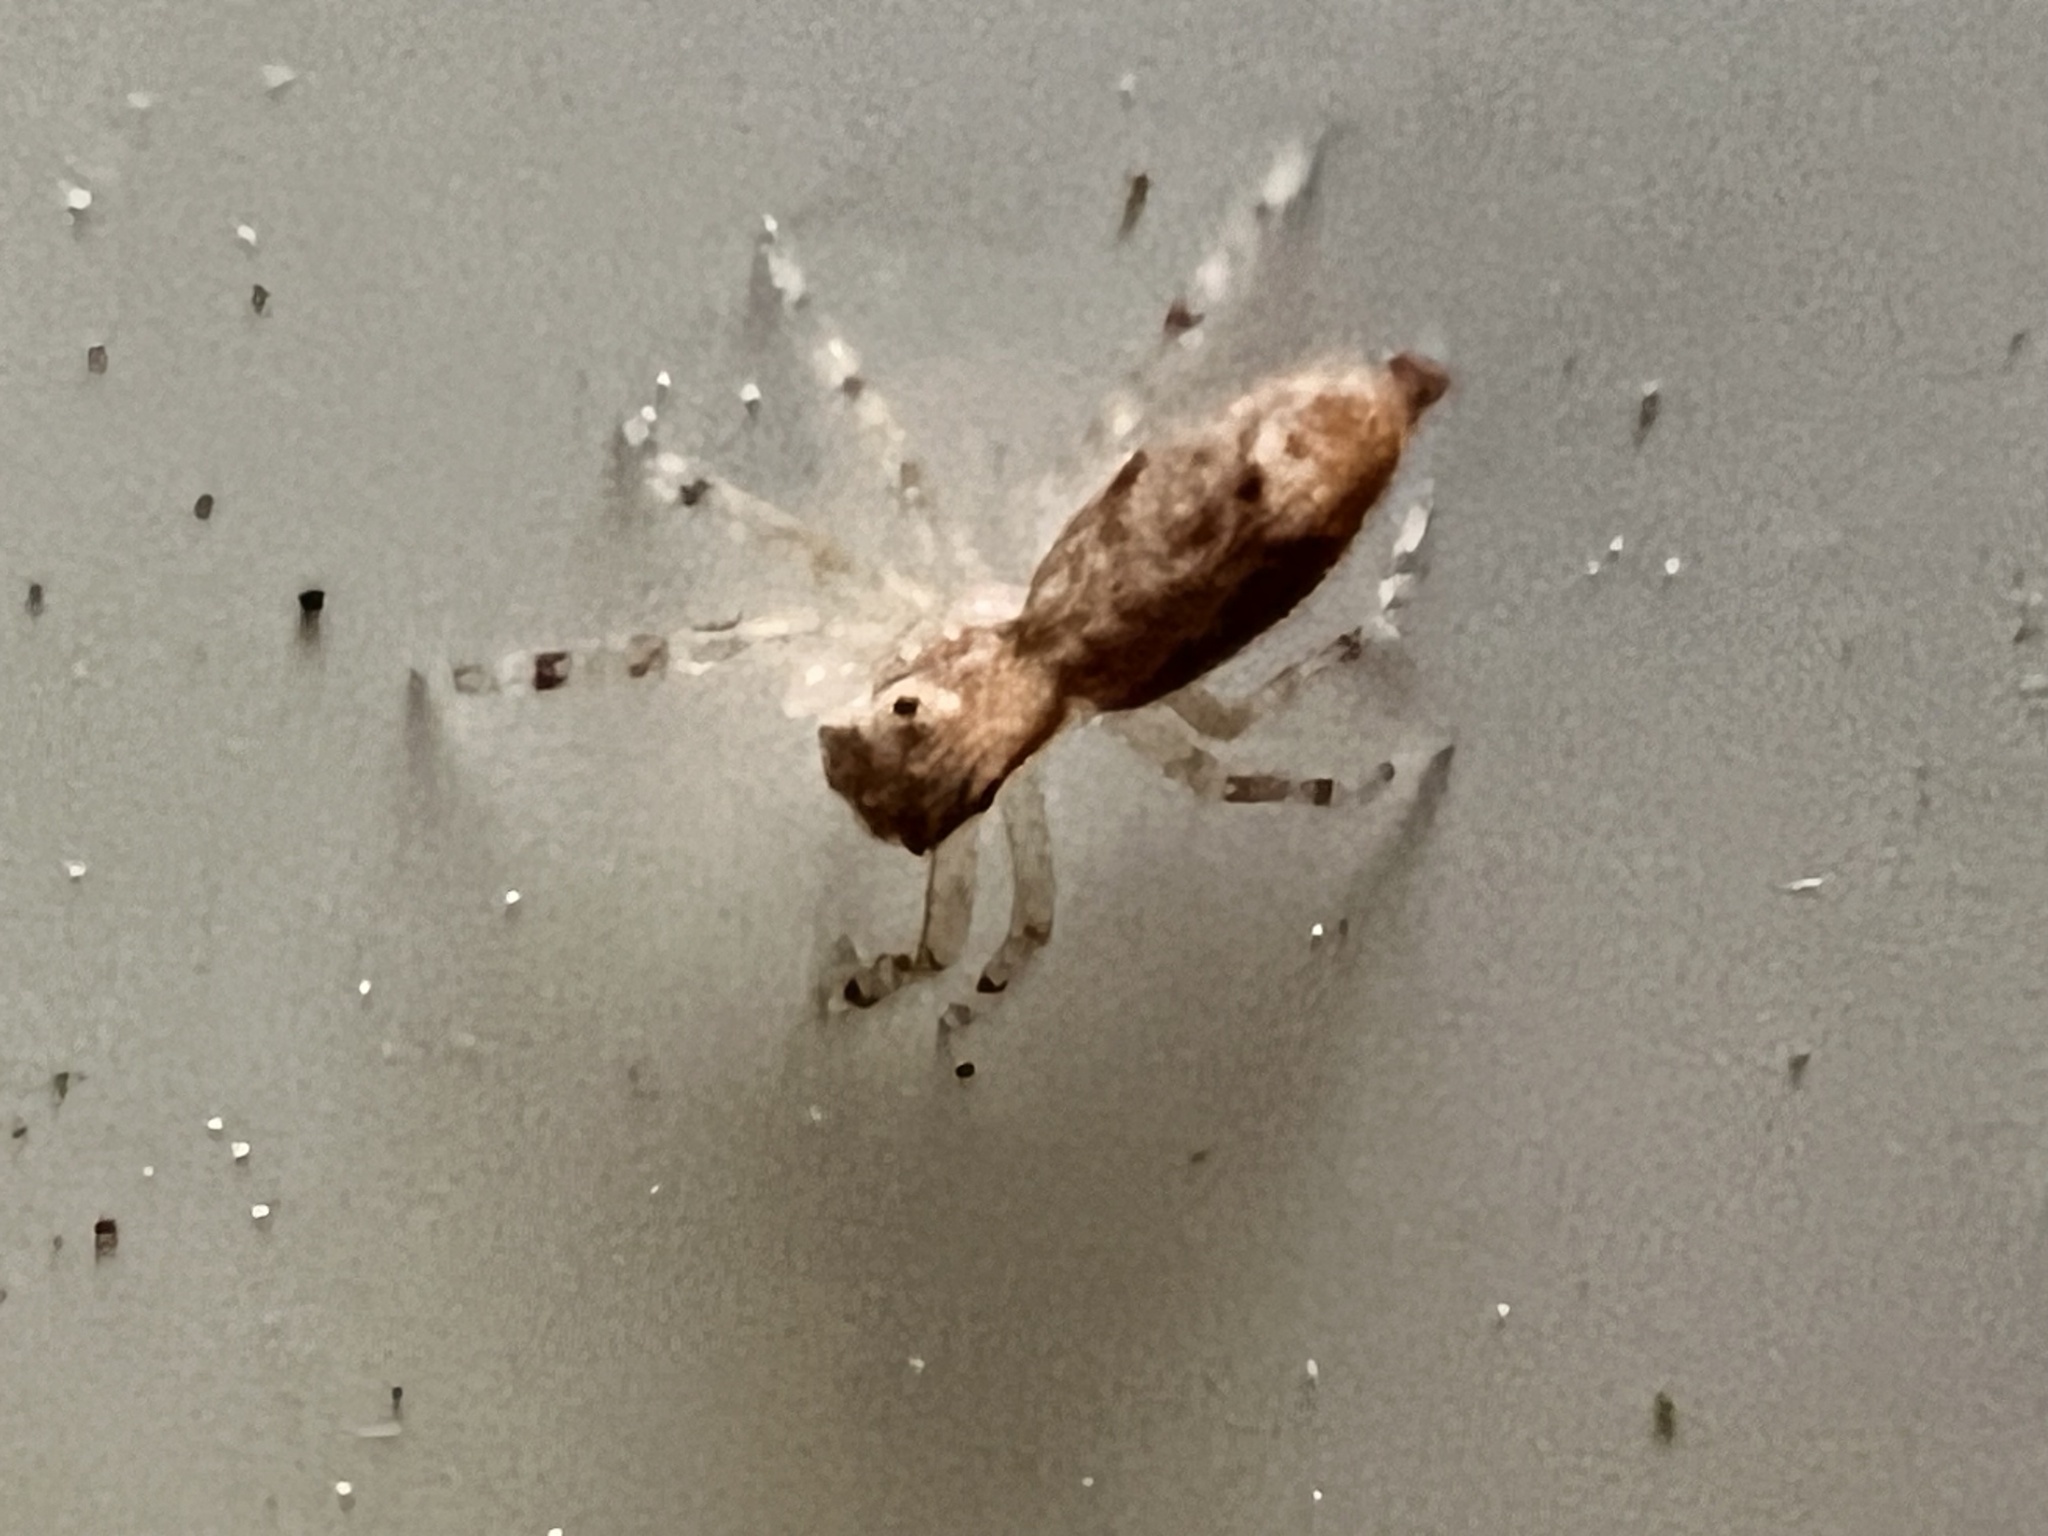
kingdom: Animalia
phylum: Arthropoda
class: Arachnida
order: Araneae
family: Salticidae
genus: Helpis
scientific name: Helpis minitabunda
